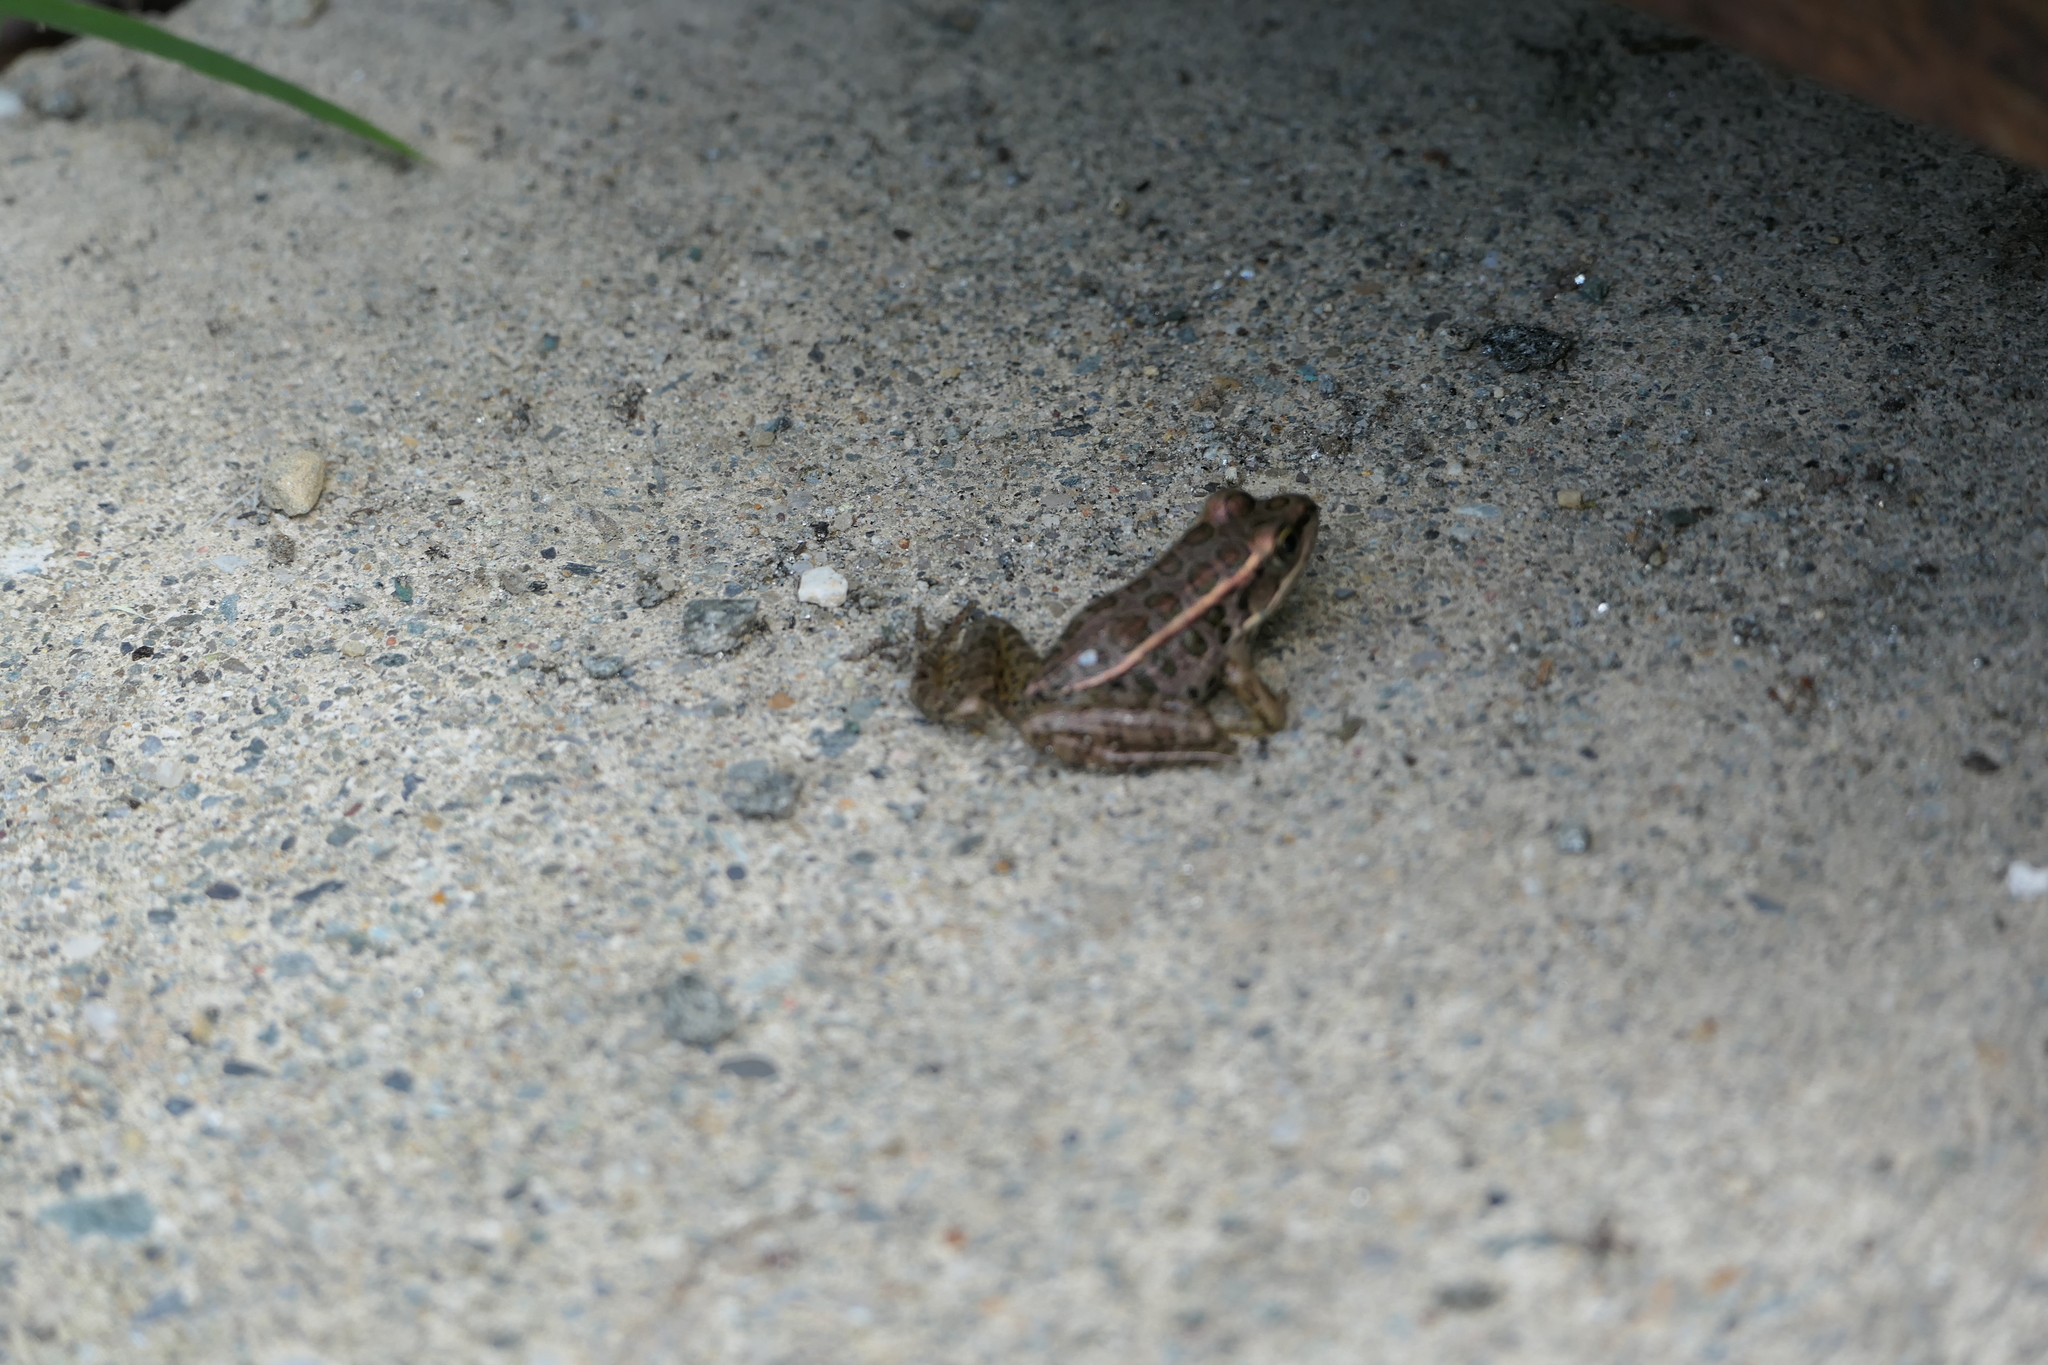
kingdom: Animalia
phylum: Chordata
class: Amphibia
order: Anura
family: Ranidae
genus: Lithobates
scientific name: Lithobates palustris
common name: Pickerel frog
